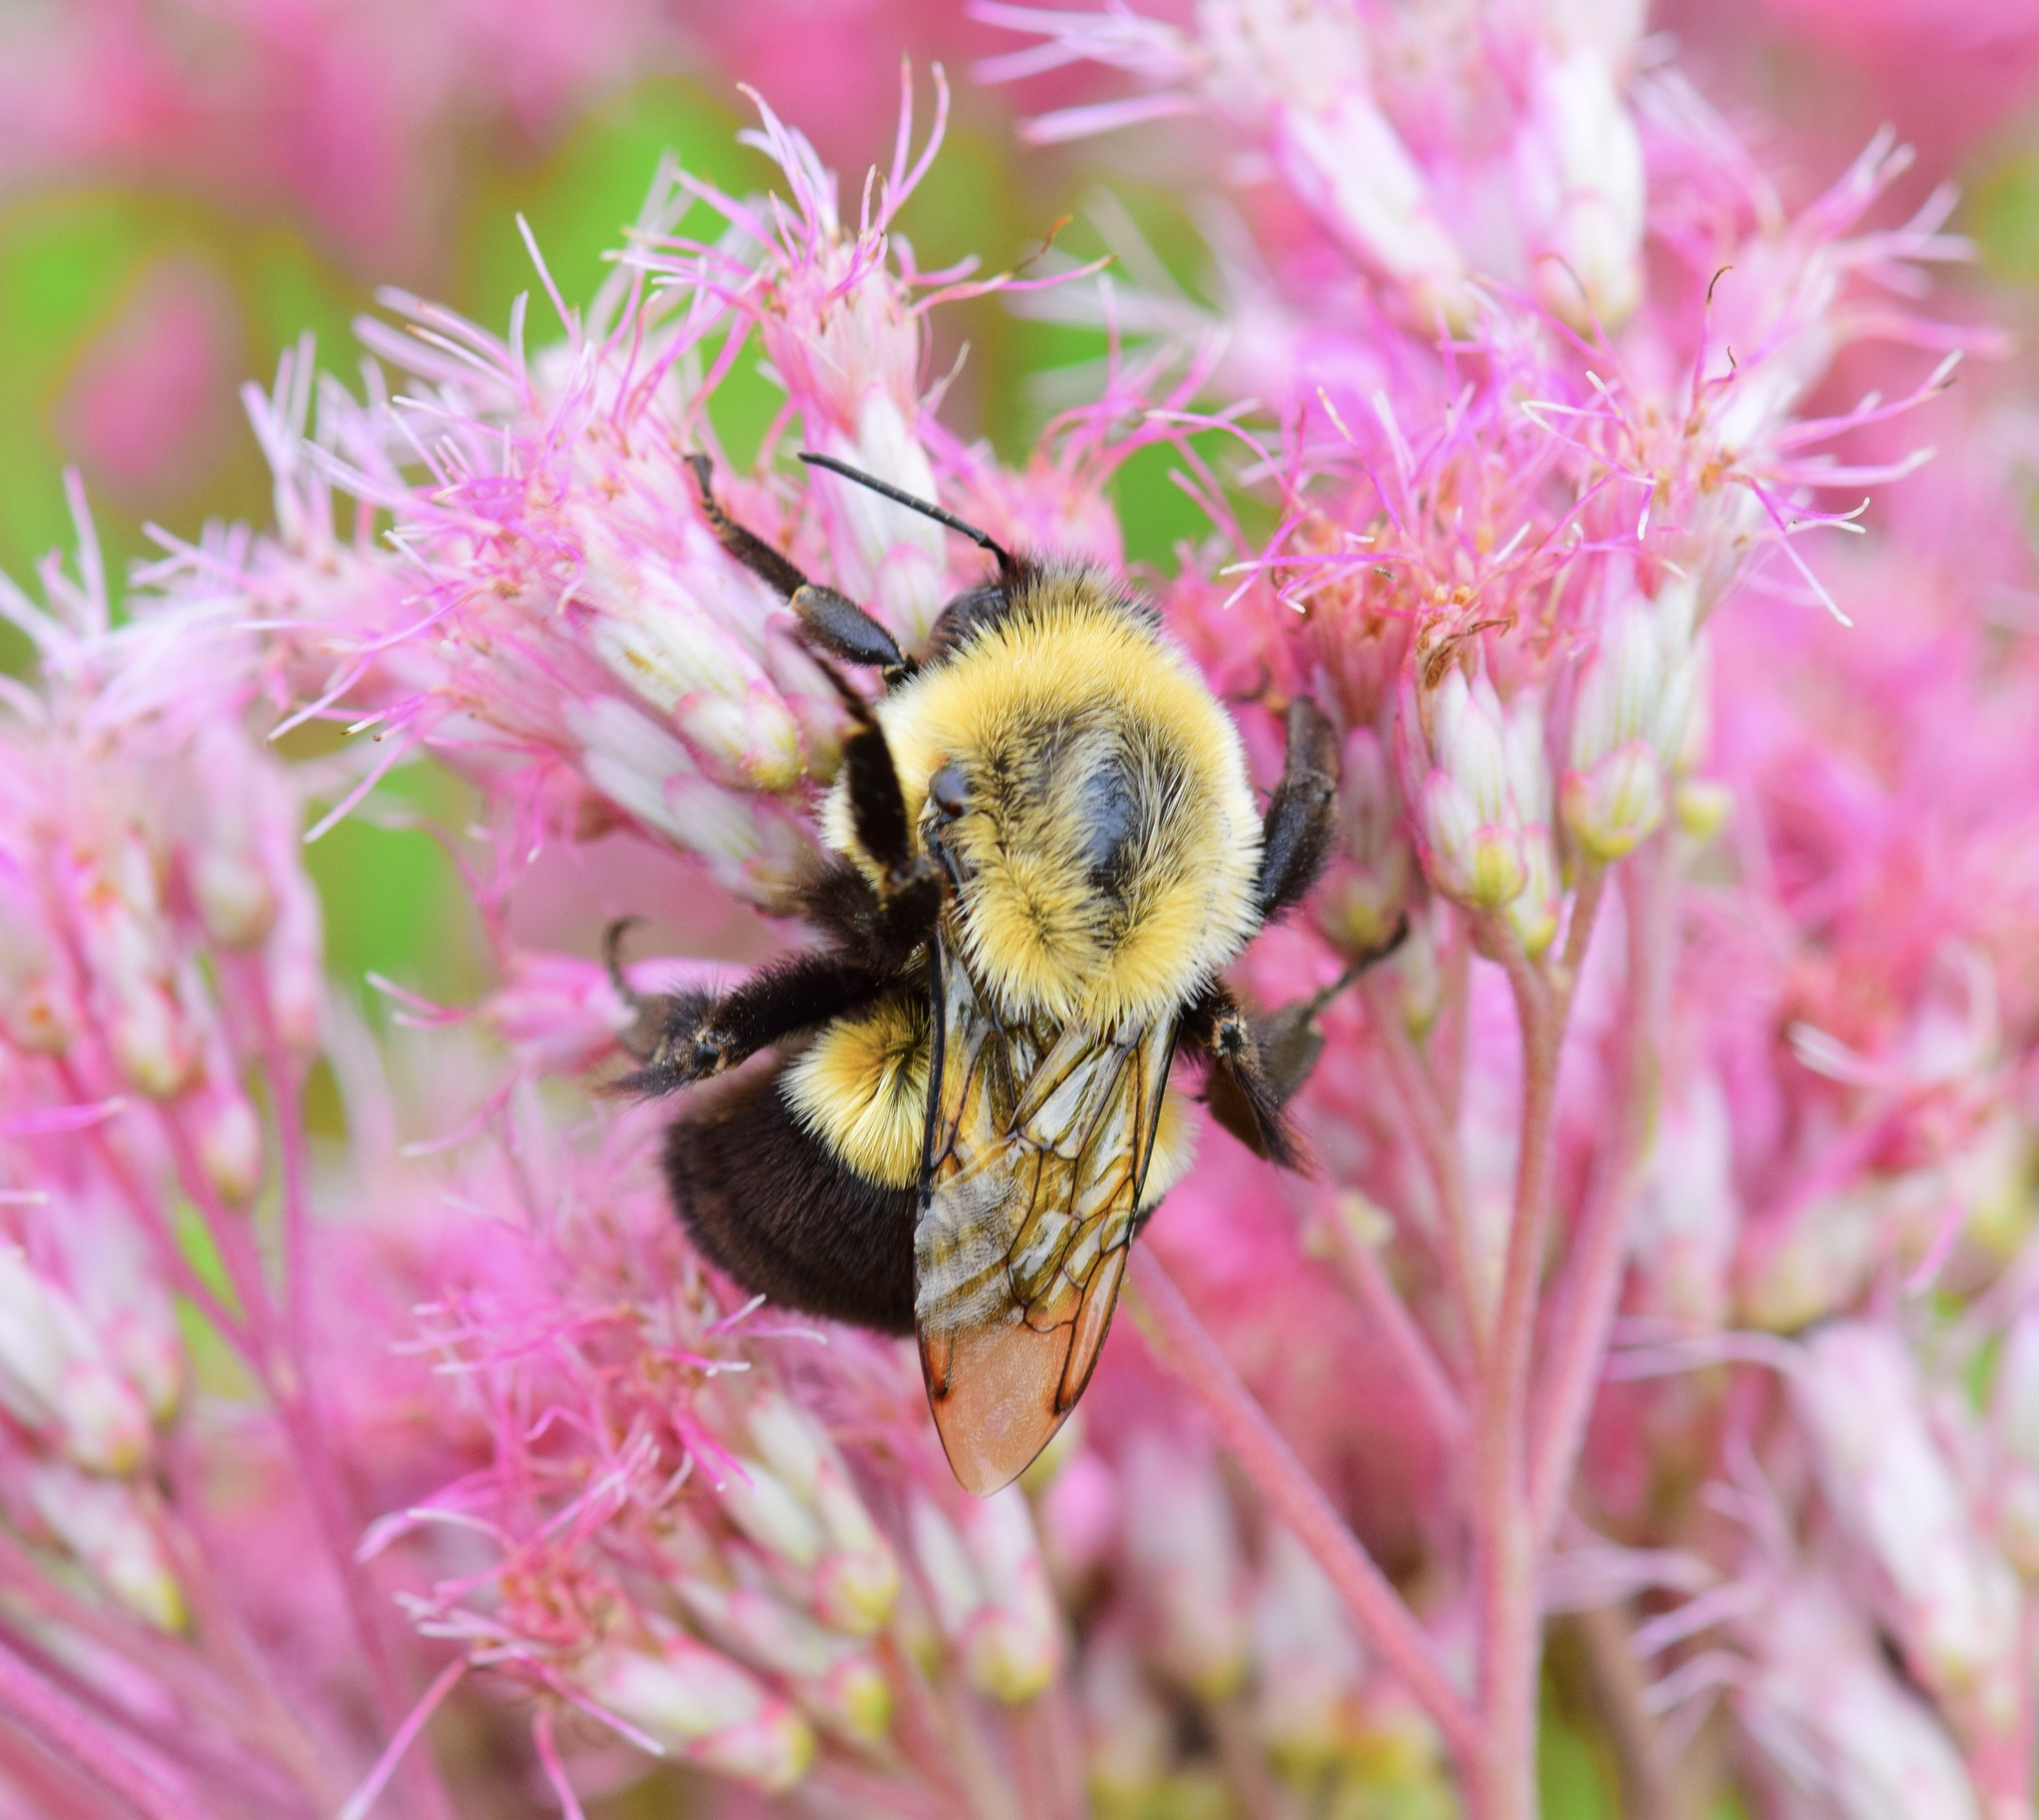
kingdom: Animalia
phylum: Arthropoda
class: Insecta
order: Hymenoptera
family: Apidae
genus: Bombus
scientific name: Bombus impatiens
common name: Common eastern bumble bee
